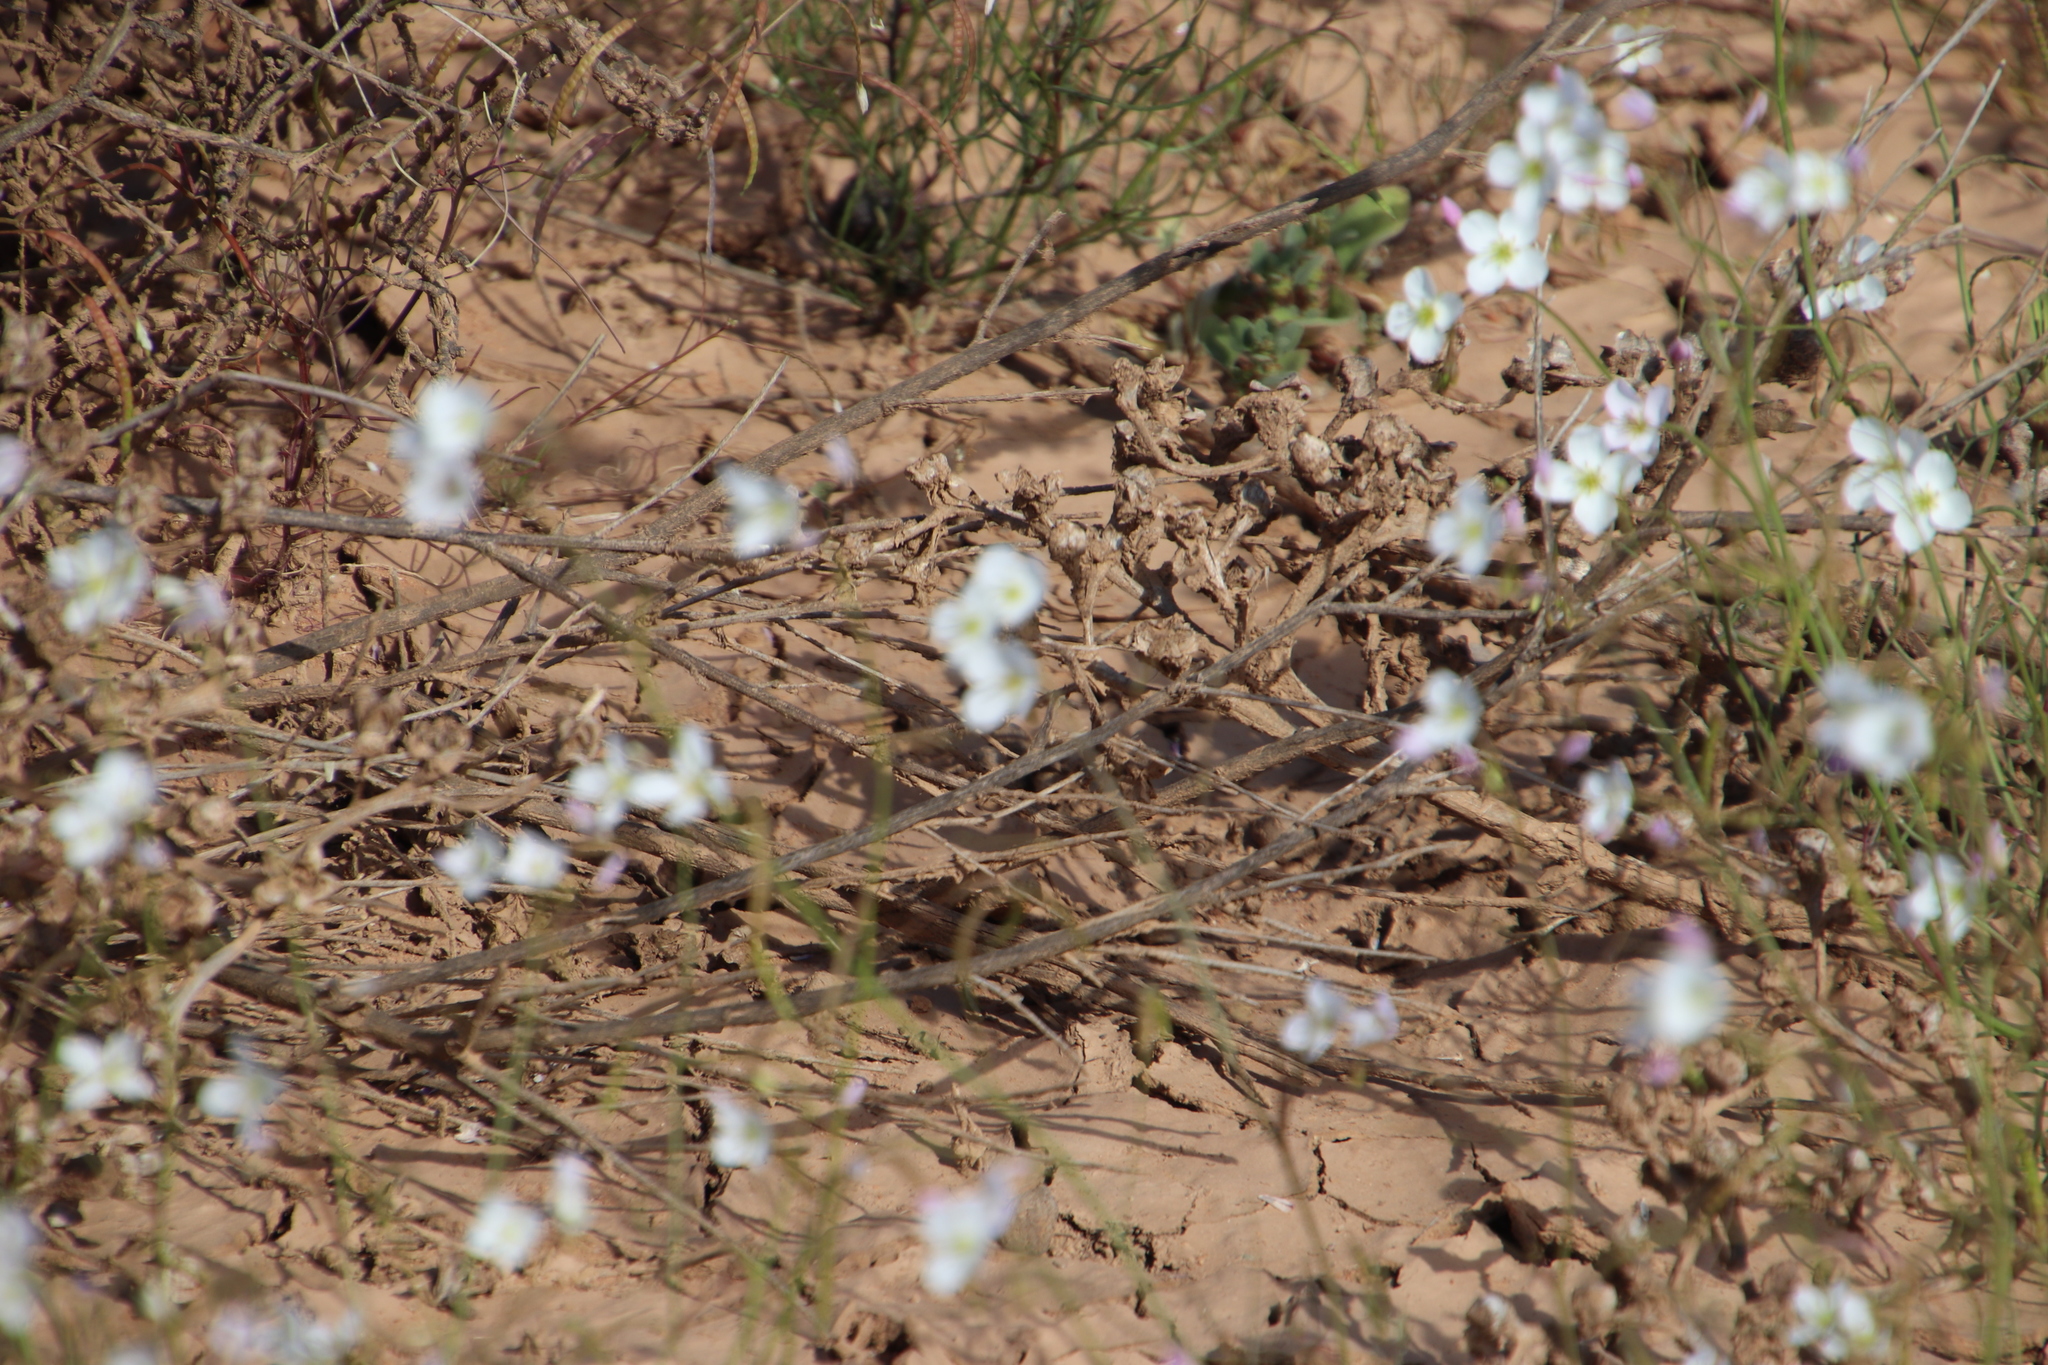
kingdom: Plantae
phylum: Tracheophyta
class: Magnoliopsida
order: Brassicales
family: Brassicaceae
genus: Heliophila
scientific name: Heliophila variabilis
